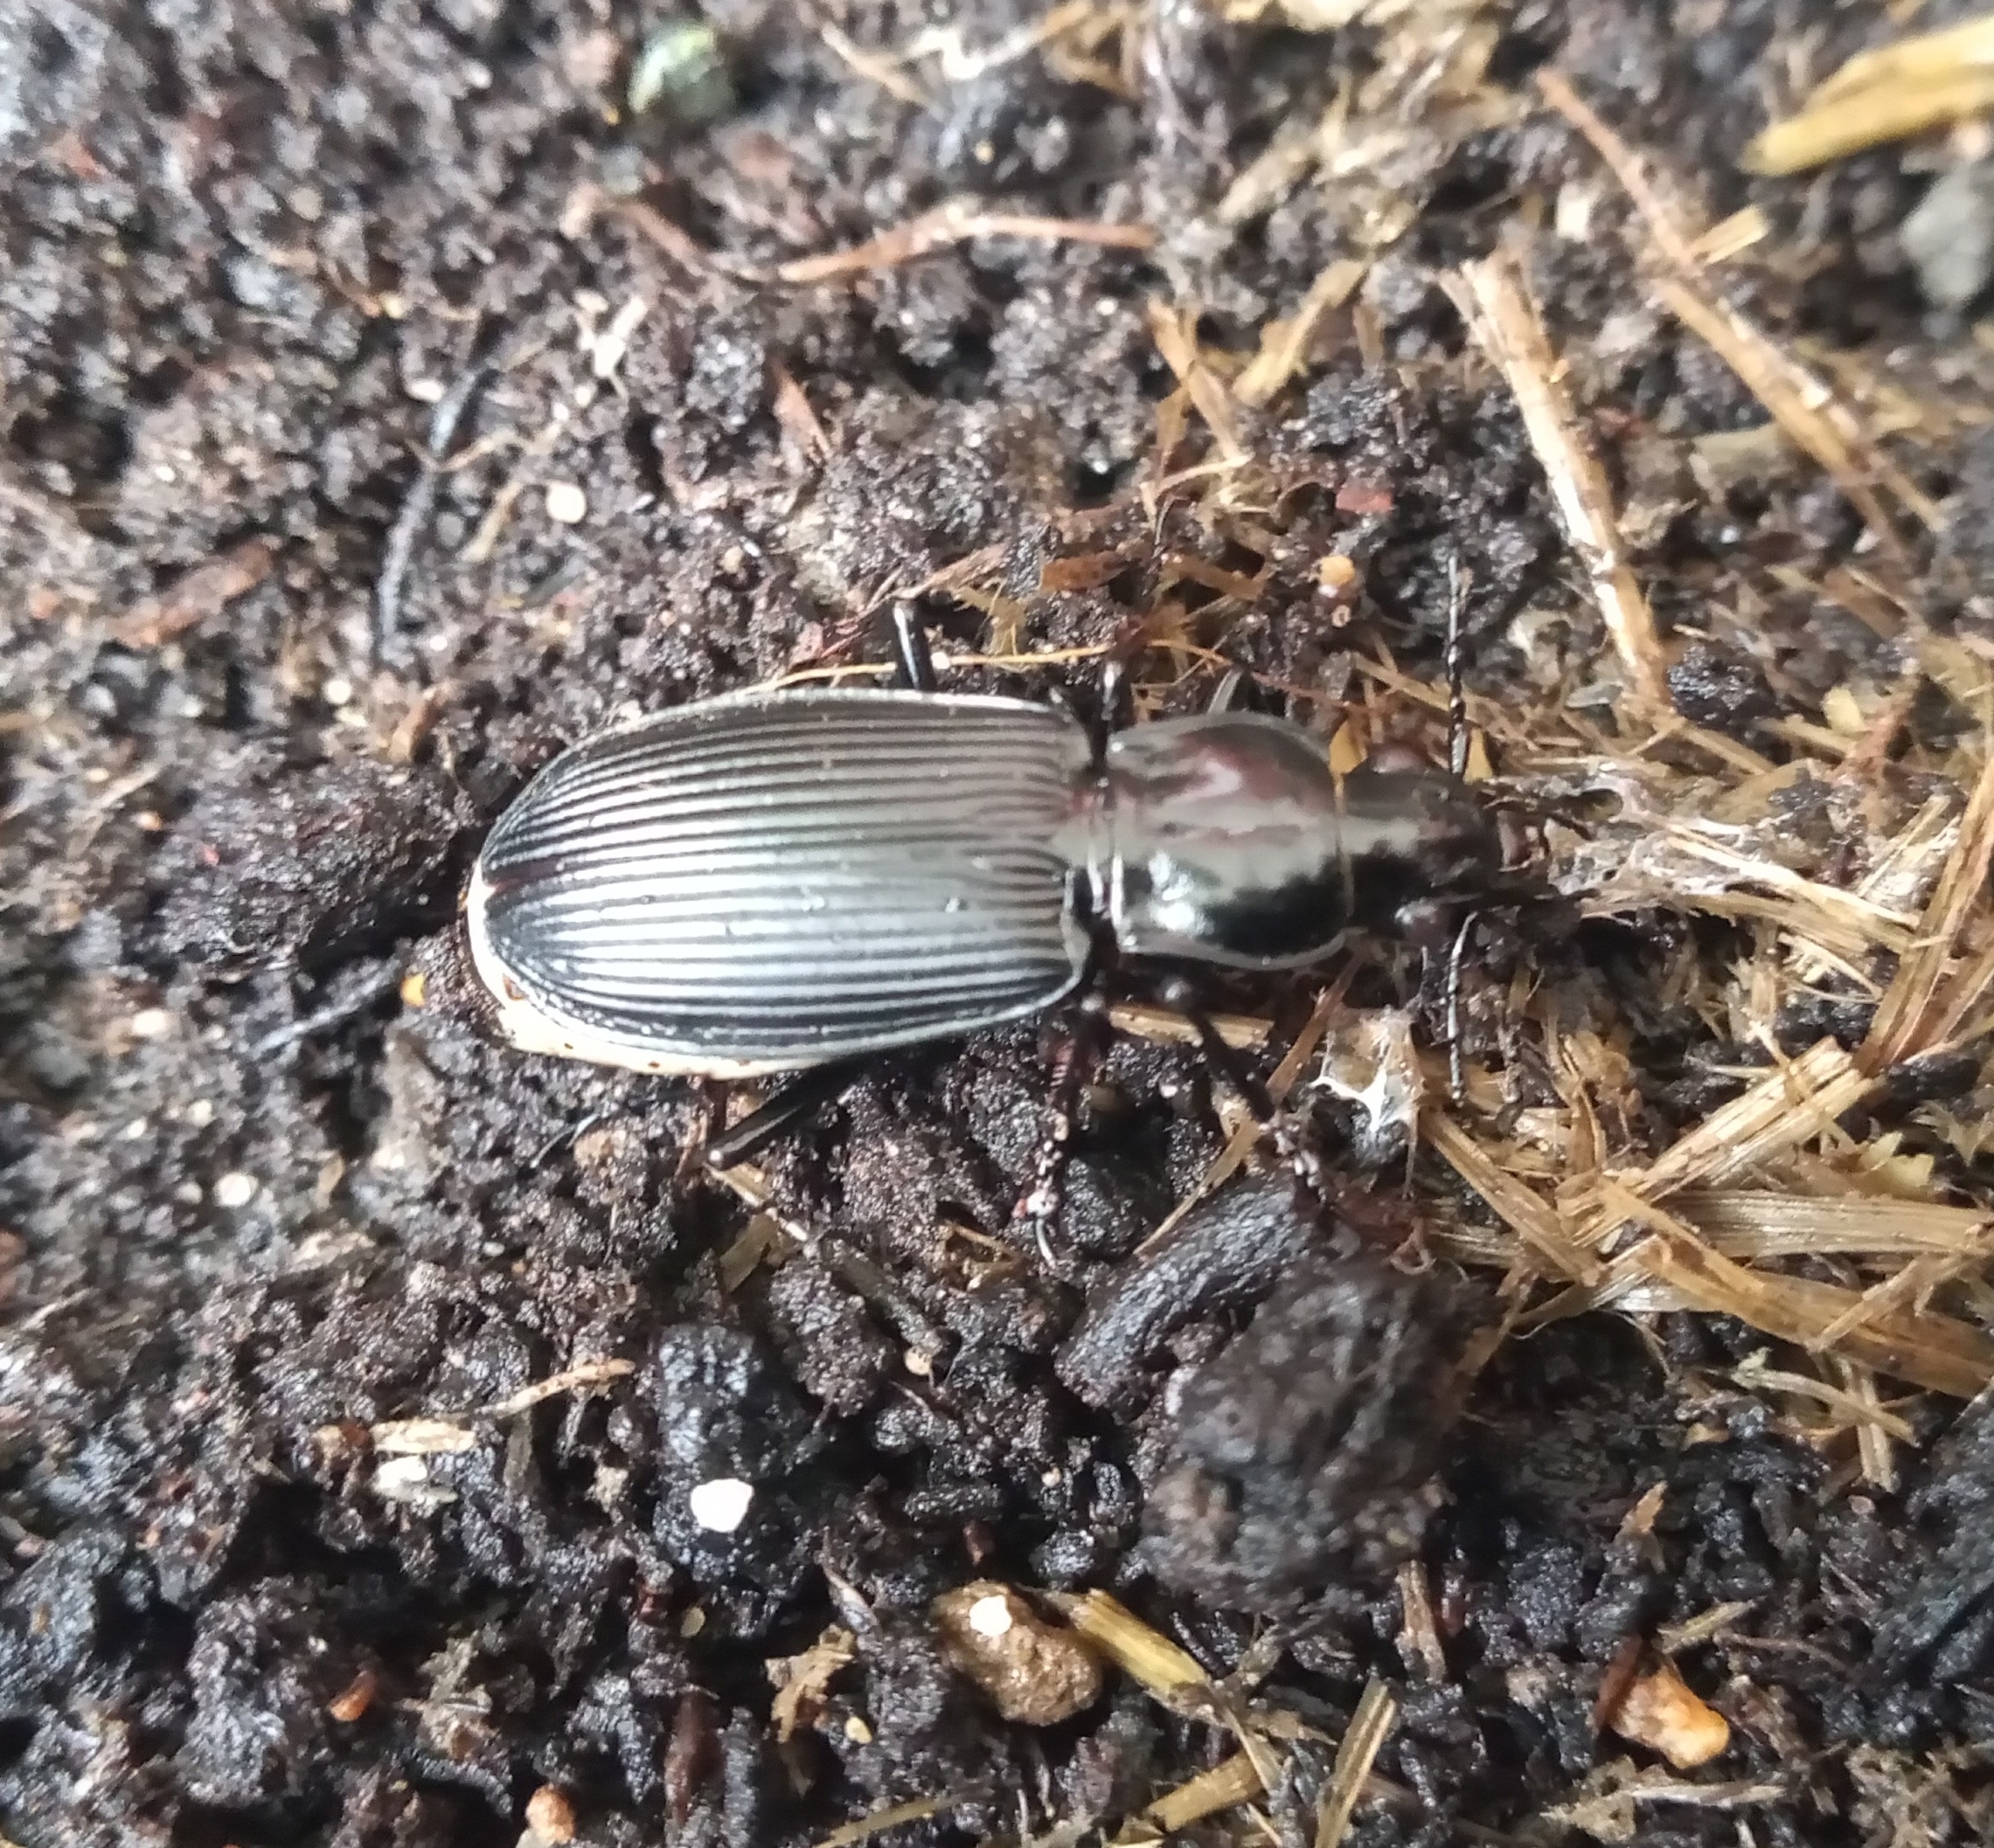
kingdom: Animalia
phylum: Arthropoda
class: Insecta
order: Coleoptera
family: Carabidae
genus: Pterostichus
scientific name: Pterostichus niger
